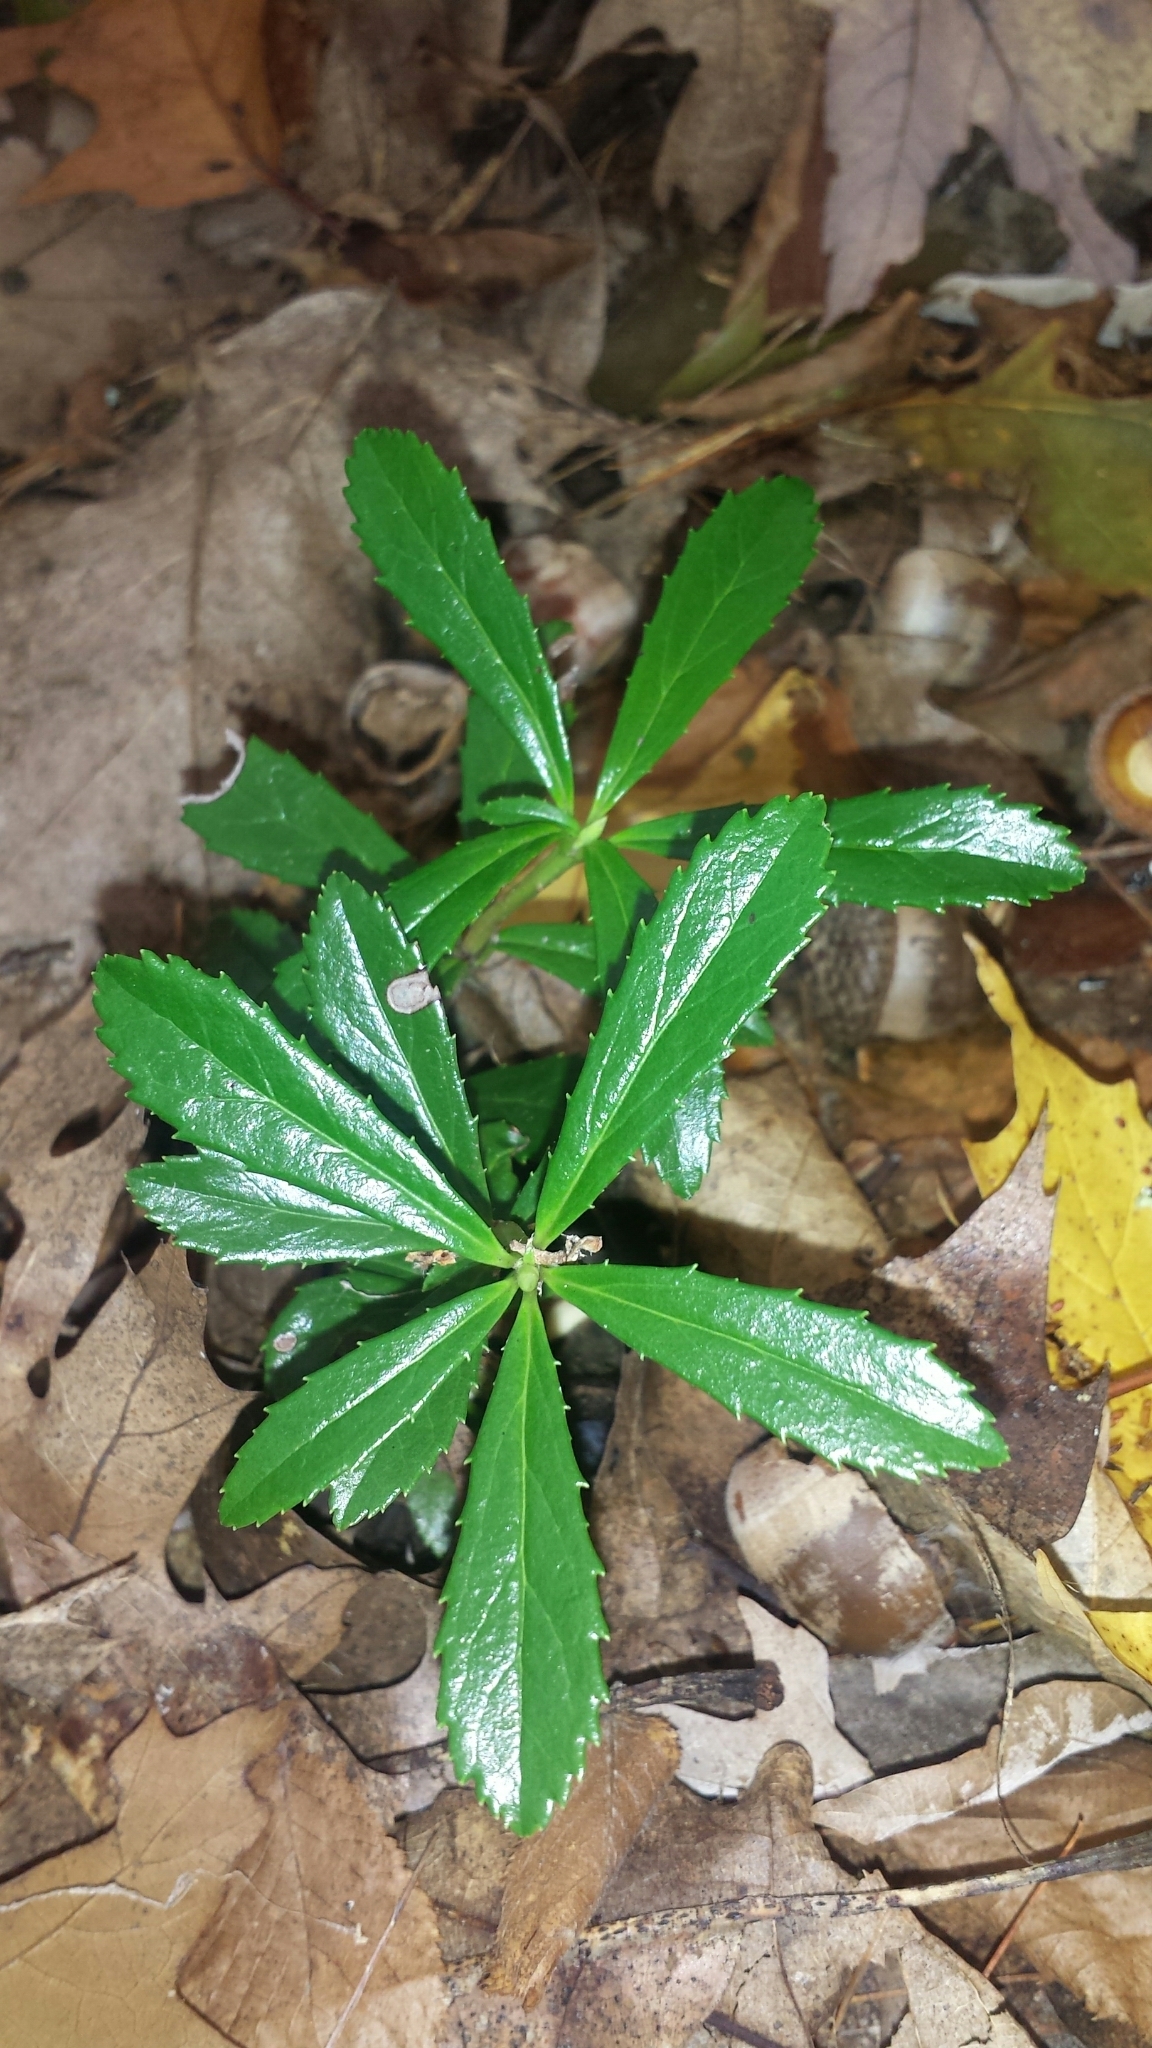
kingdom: Plantae
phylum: Tracheophyta
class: Magnoliopsida
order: Ericales
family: Ericaceae
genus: Chimaphila
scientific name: Chimaphila umbellata
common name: Pipsissewa
